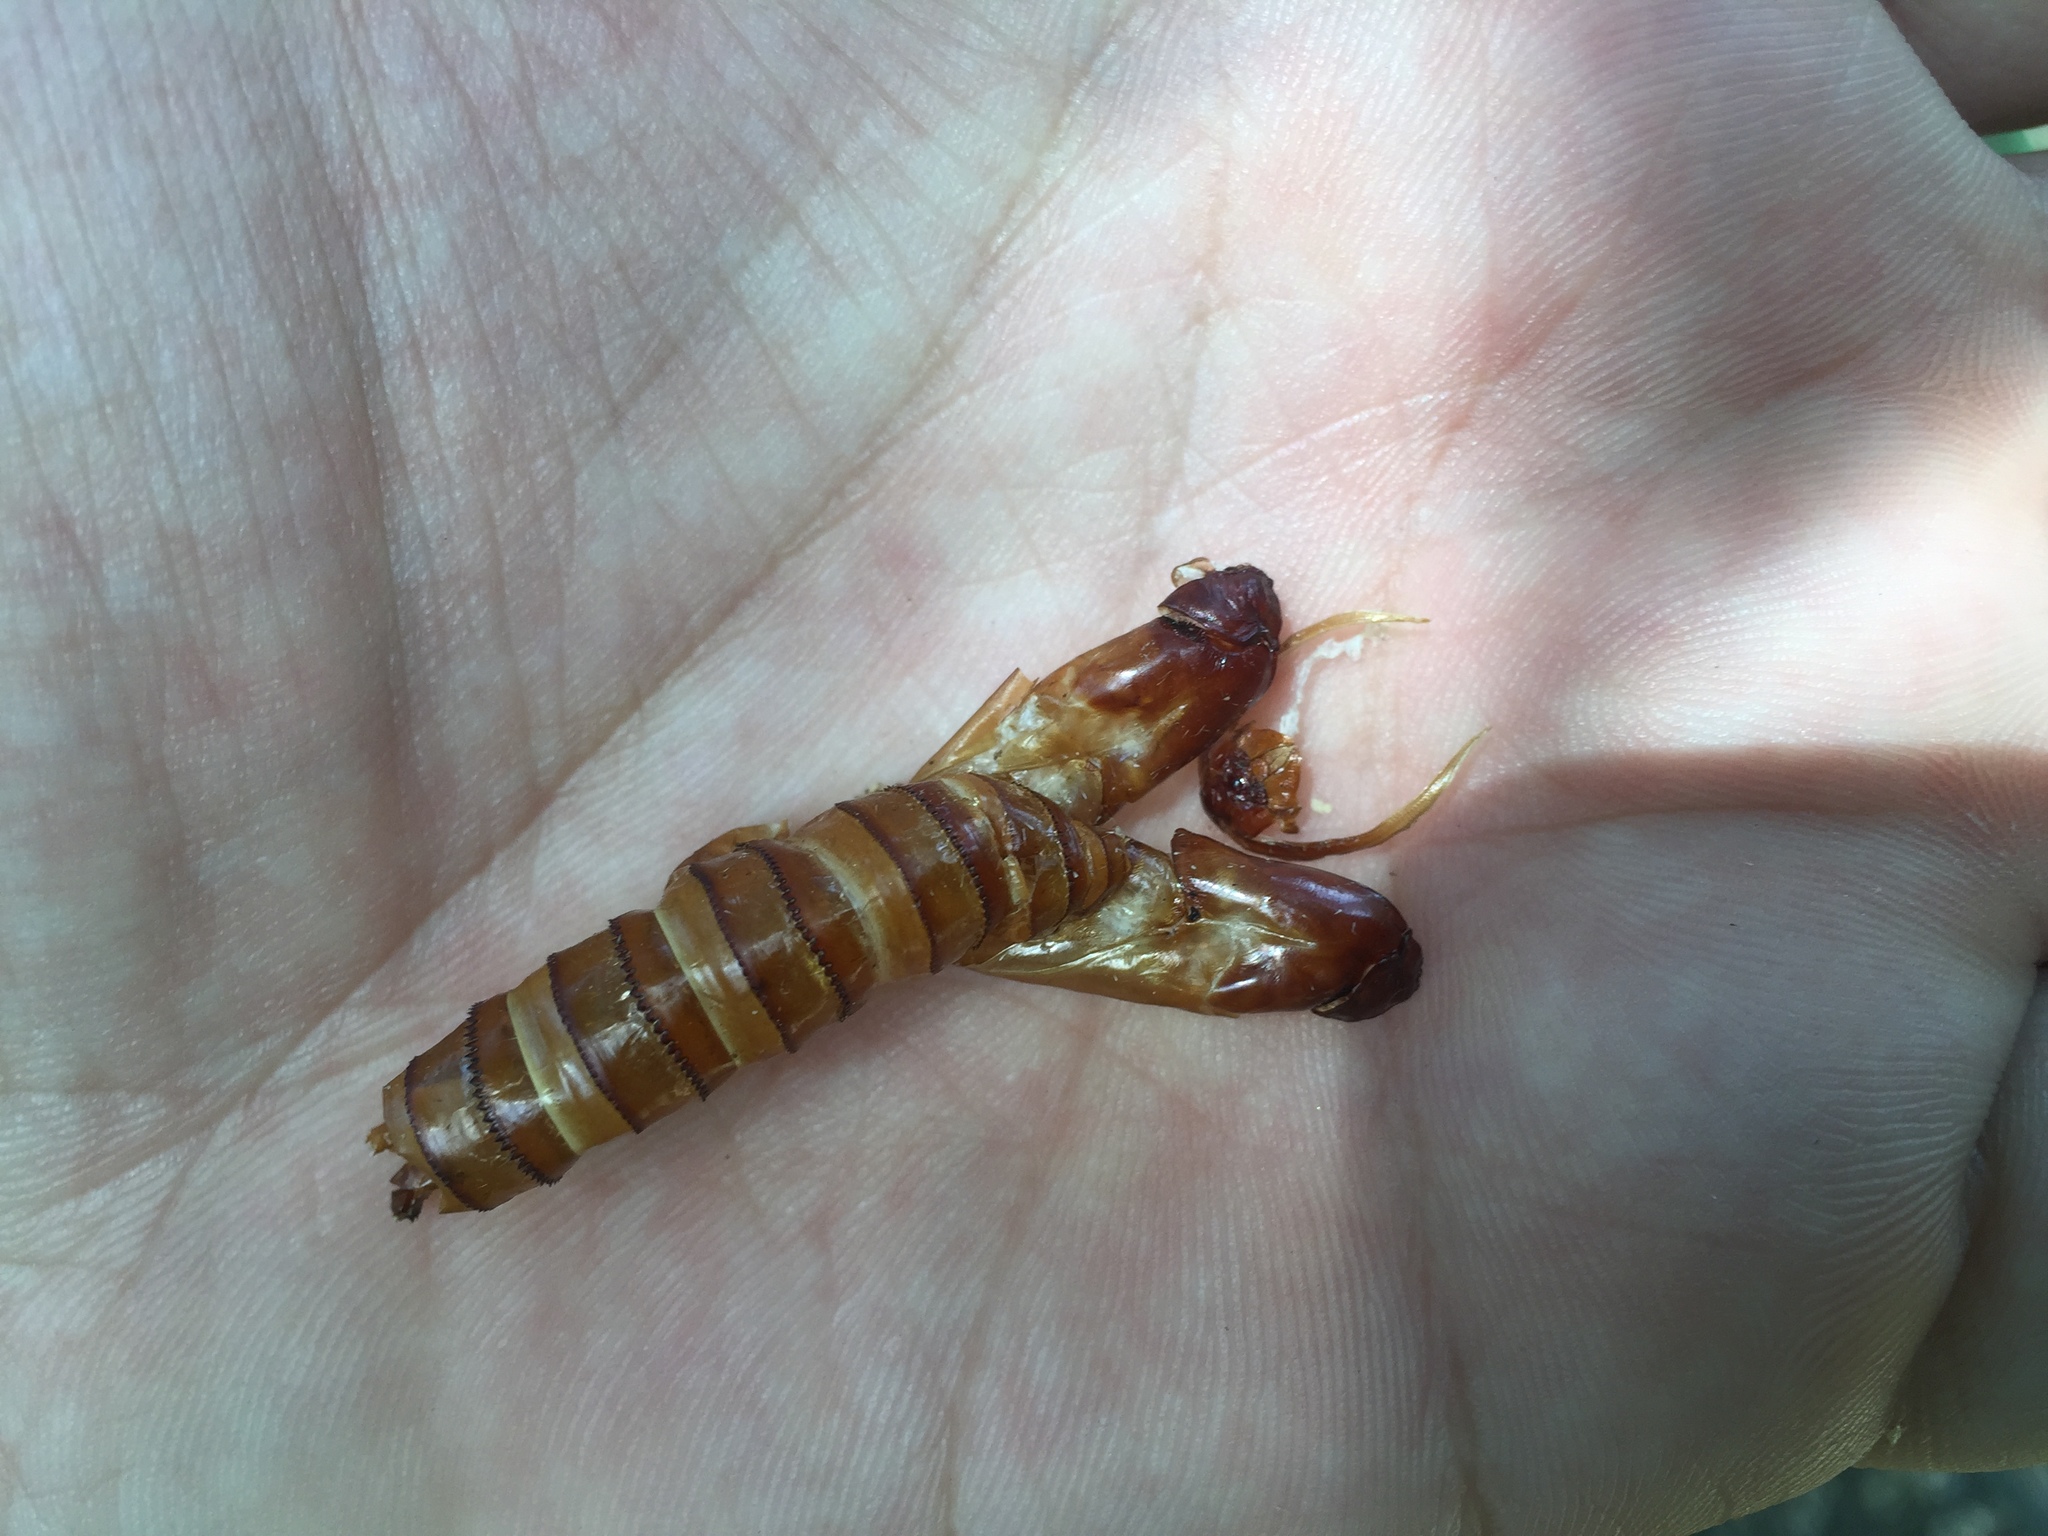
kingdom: Animalia
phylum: Arthropoda
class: Insecta
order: Lepidoptera
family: Cossidae
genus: Prionoxystus
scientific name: Prionoxystus robiniae
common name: Carpenterworm
